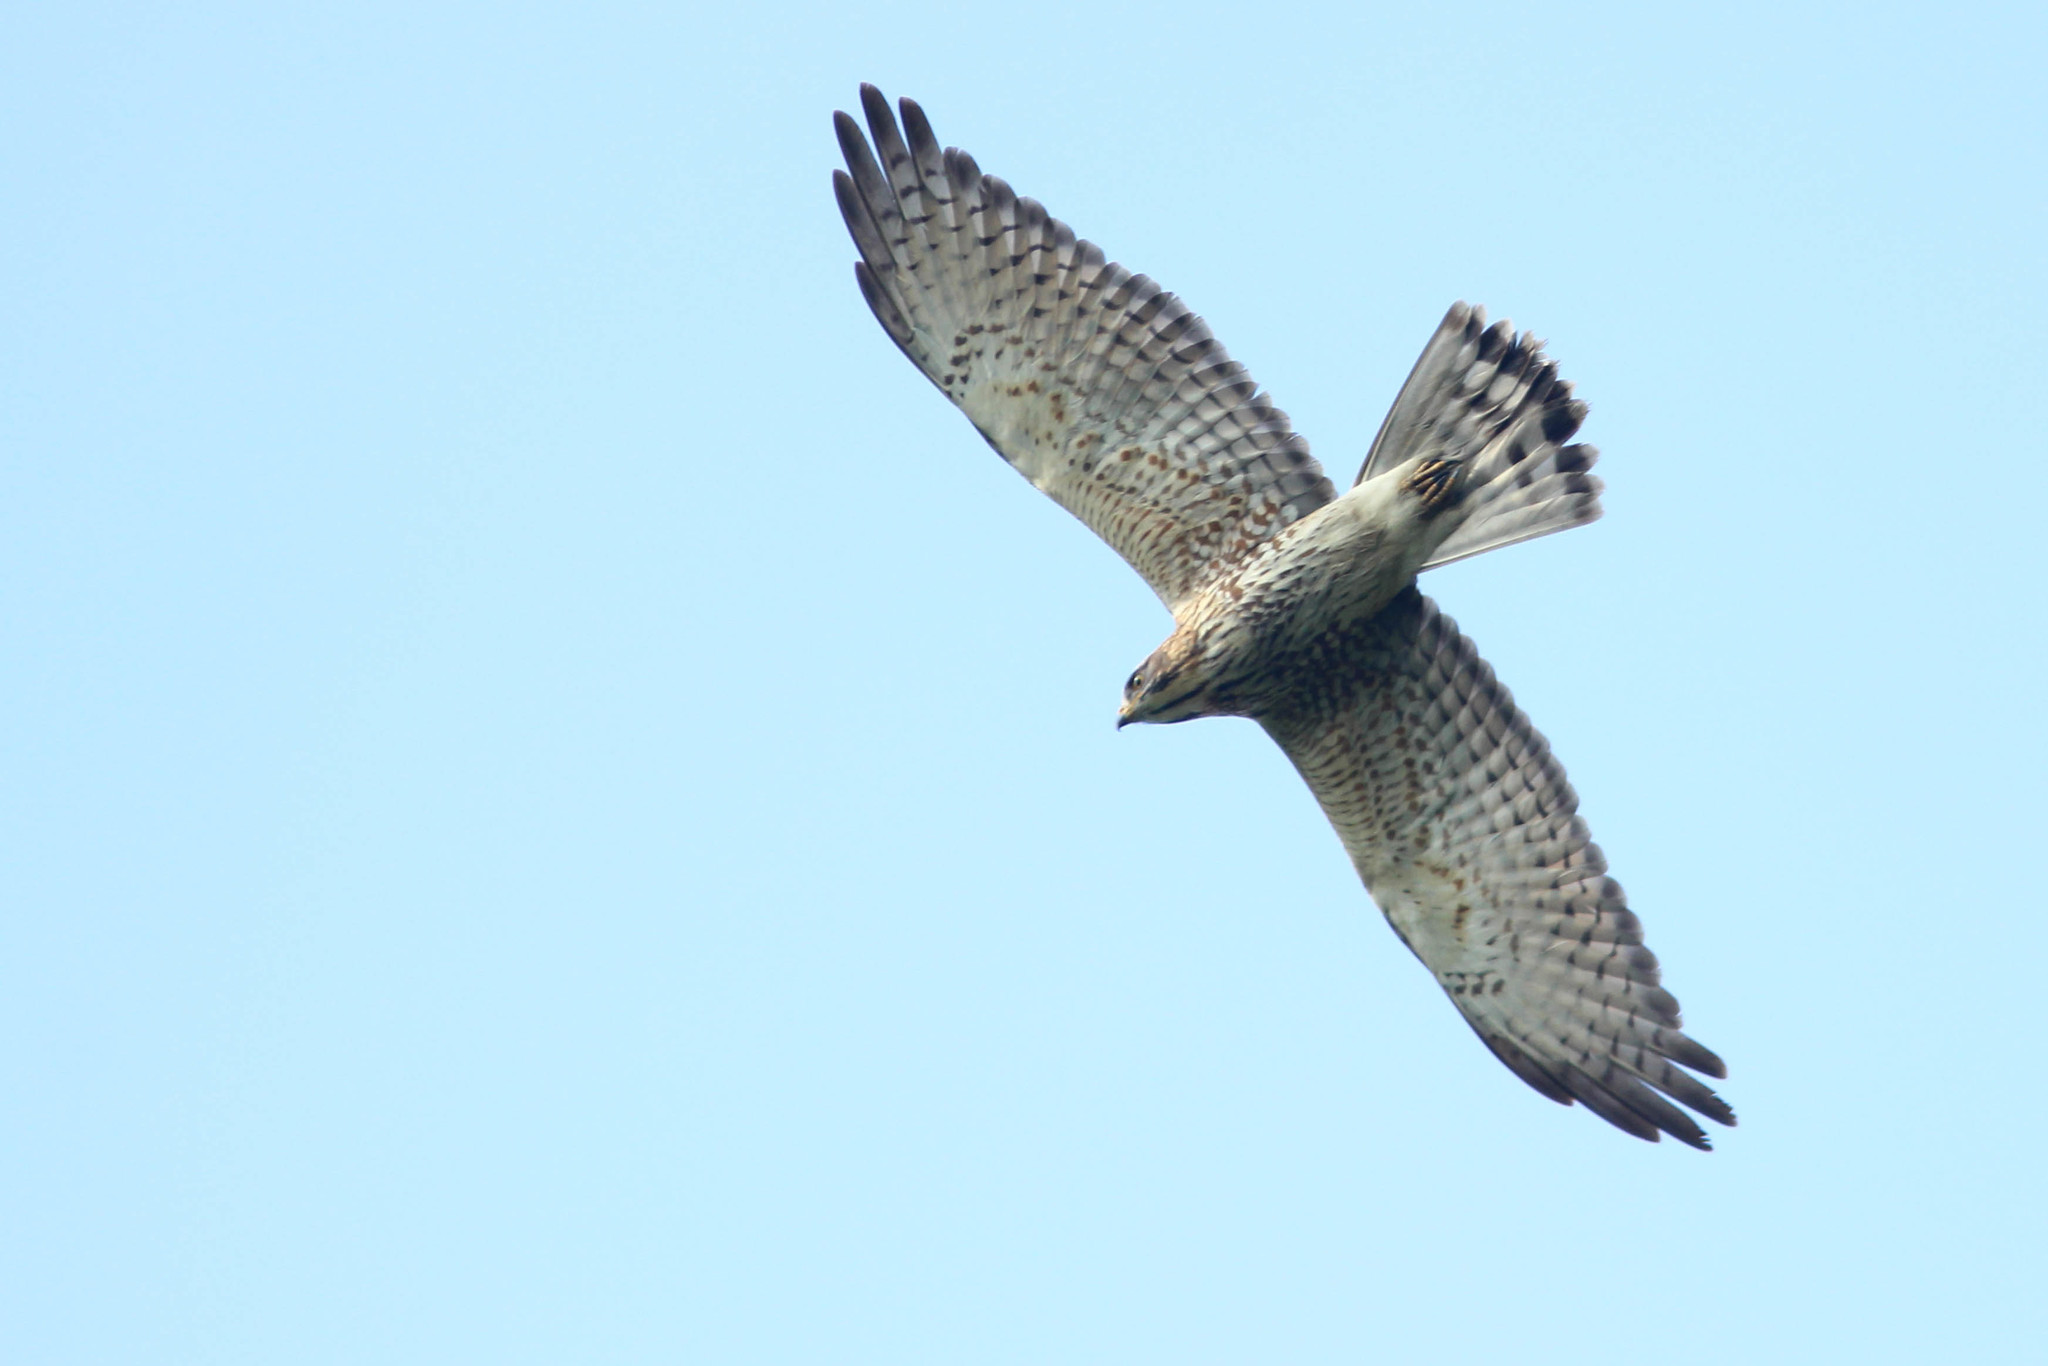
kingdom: Animalia
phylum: Chordata
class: Aves
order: Accipitriformes
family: Accipitridae
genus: Butastur
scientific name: Butastur indicus
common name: Grey-faced buzzard
